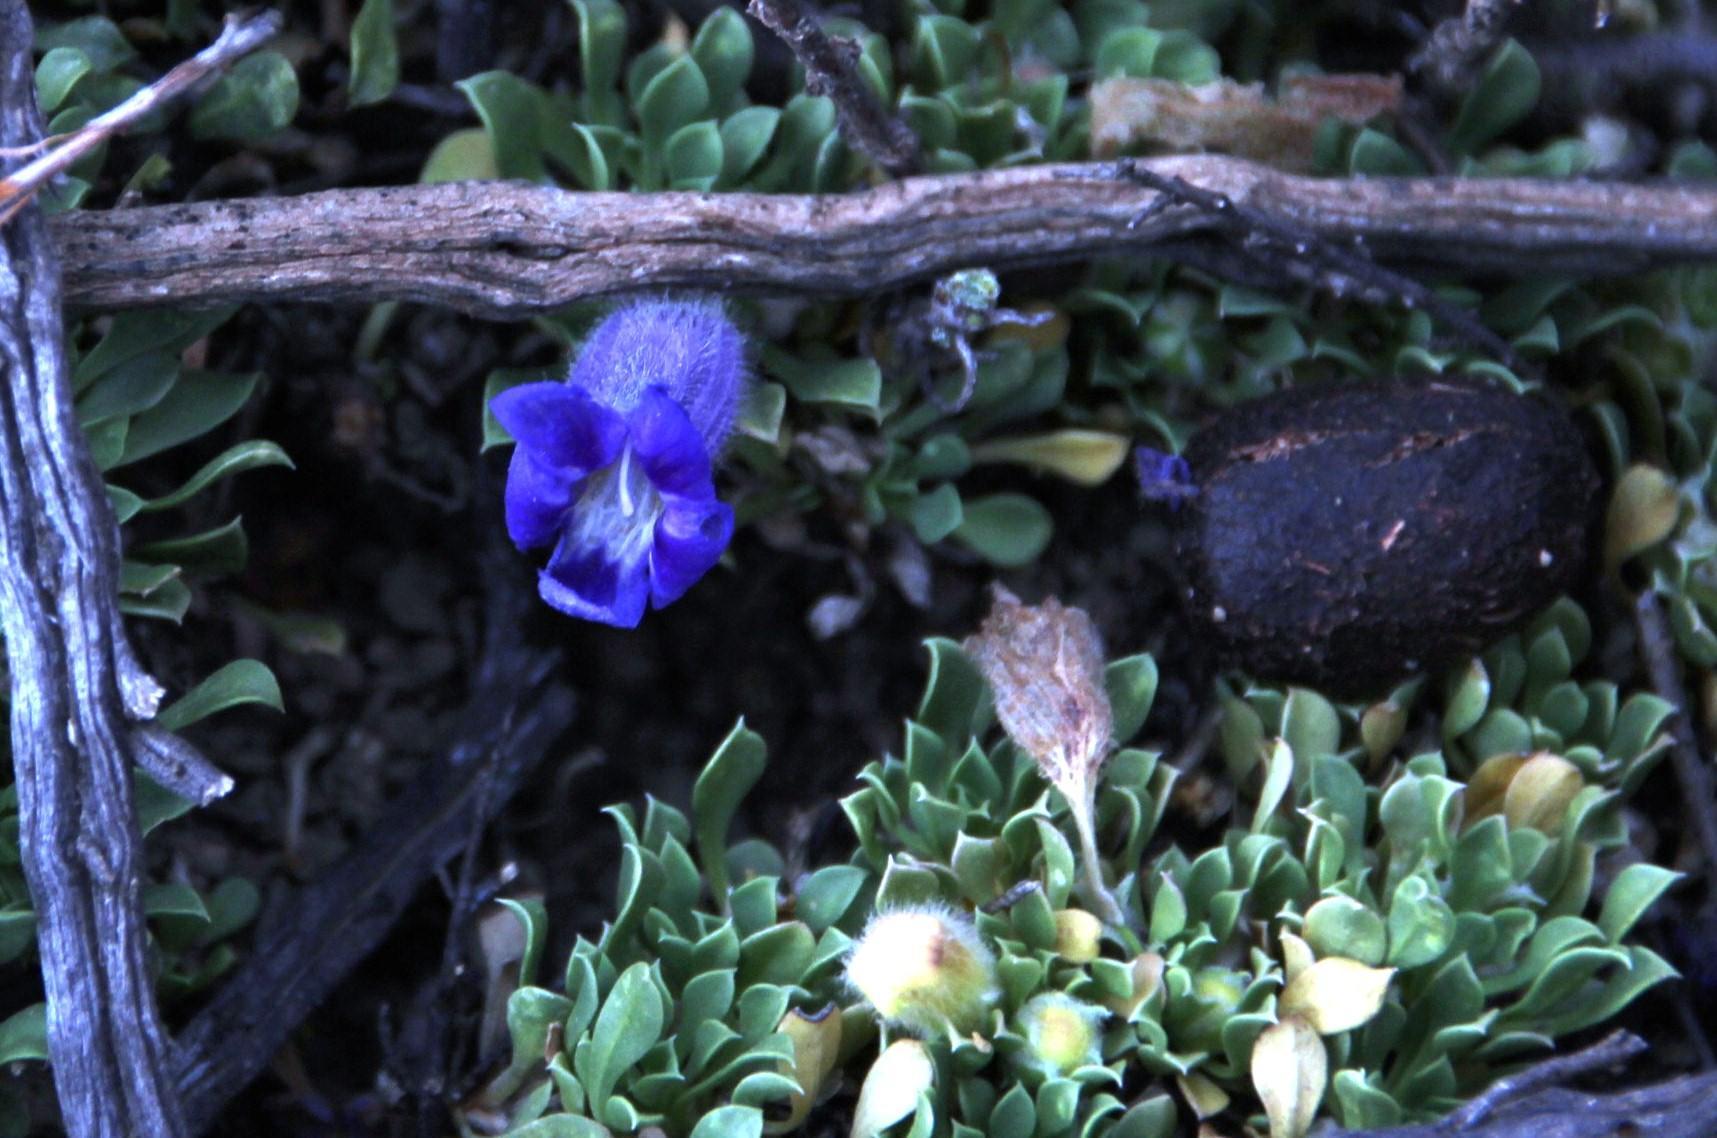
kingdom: Plantae
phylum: Tracheophyta
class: Magnoliopsida
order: Lamiales
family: Scrophulariaceae
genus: Aptosimum
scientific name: Aptosimum procumbens
